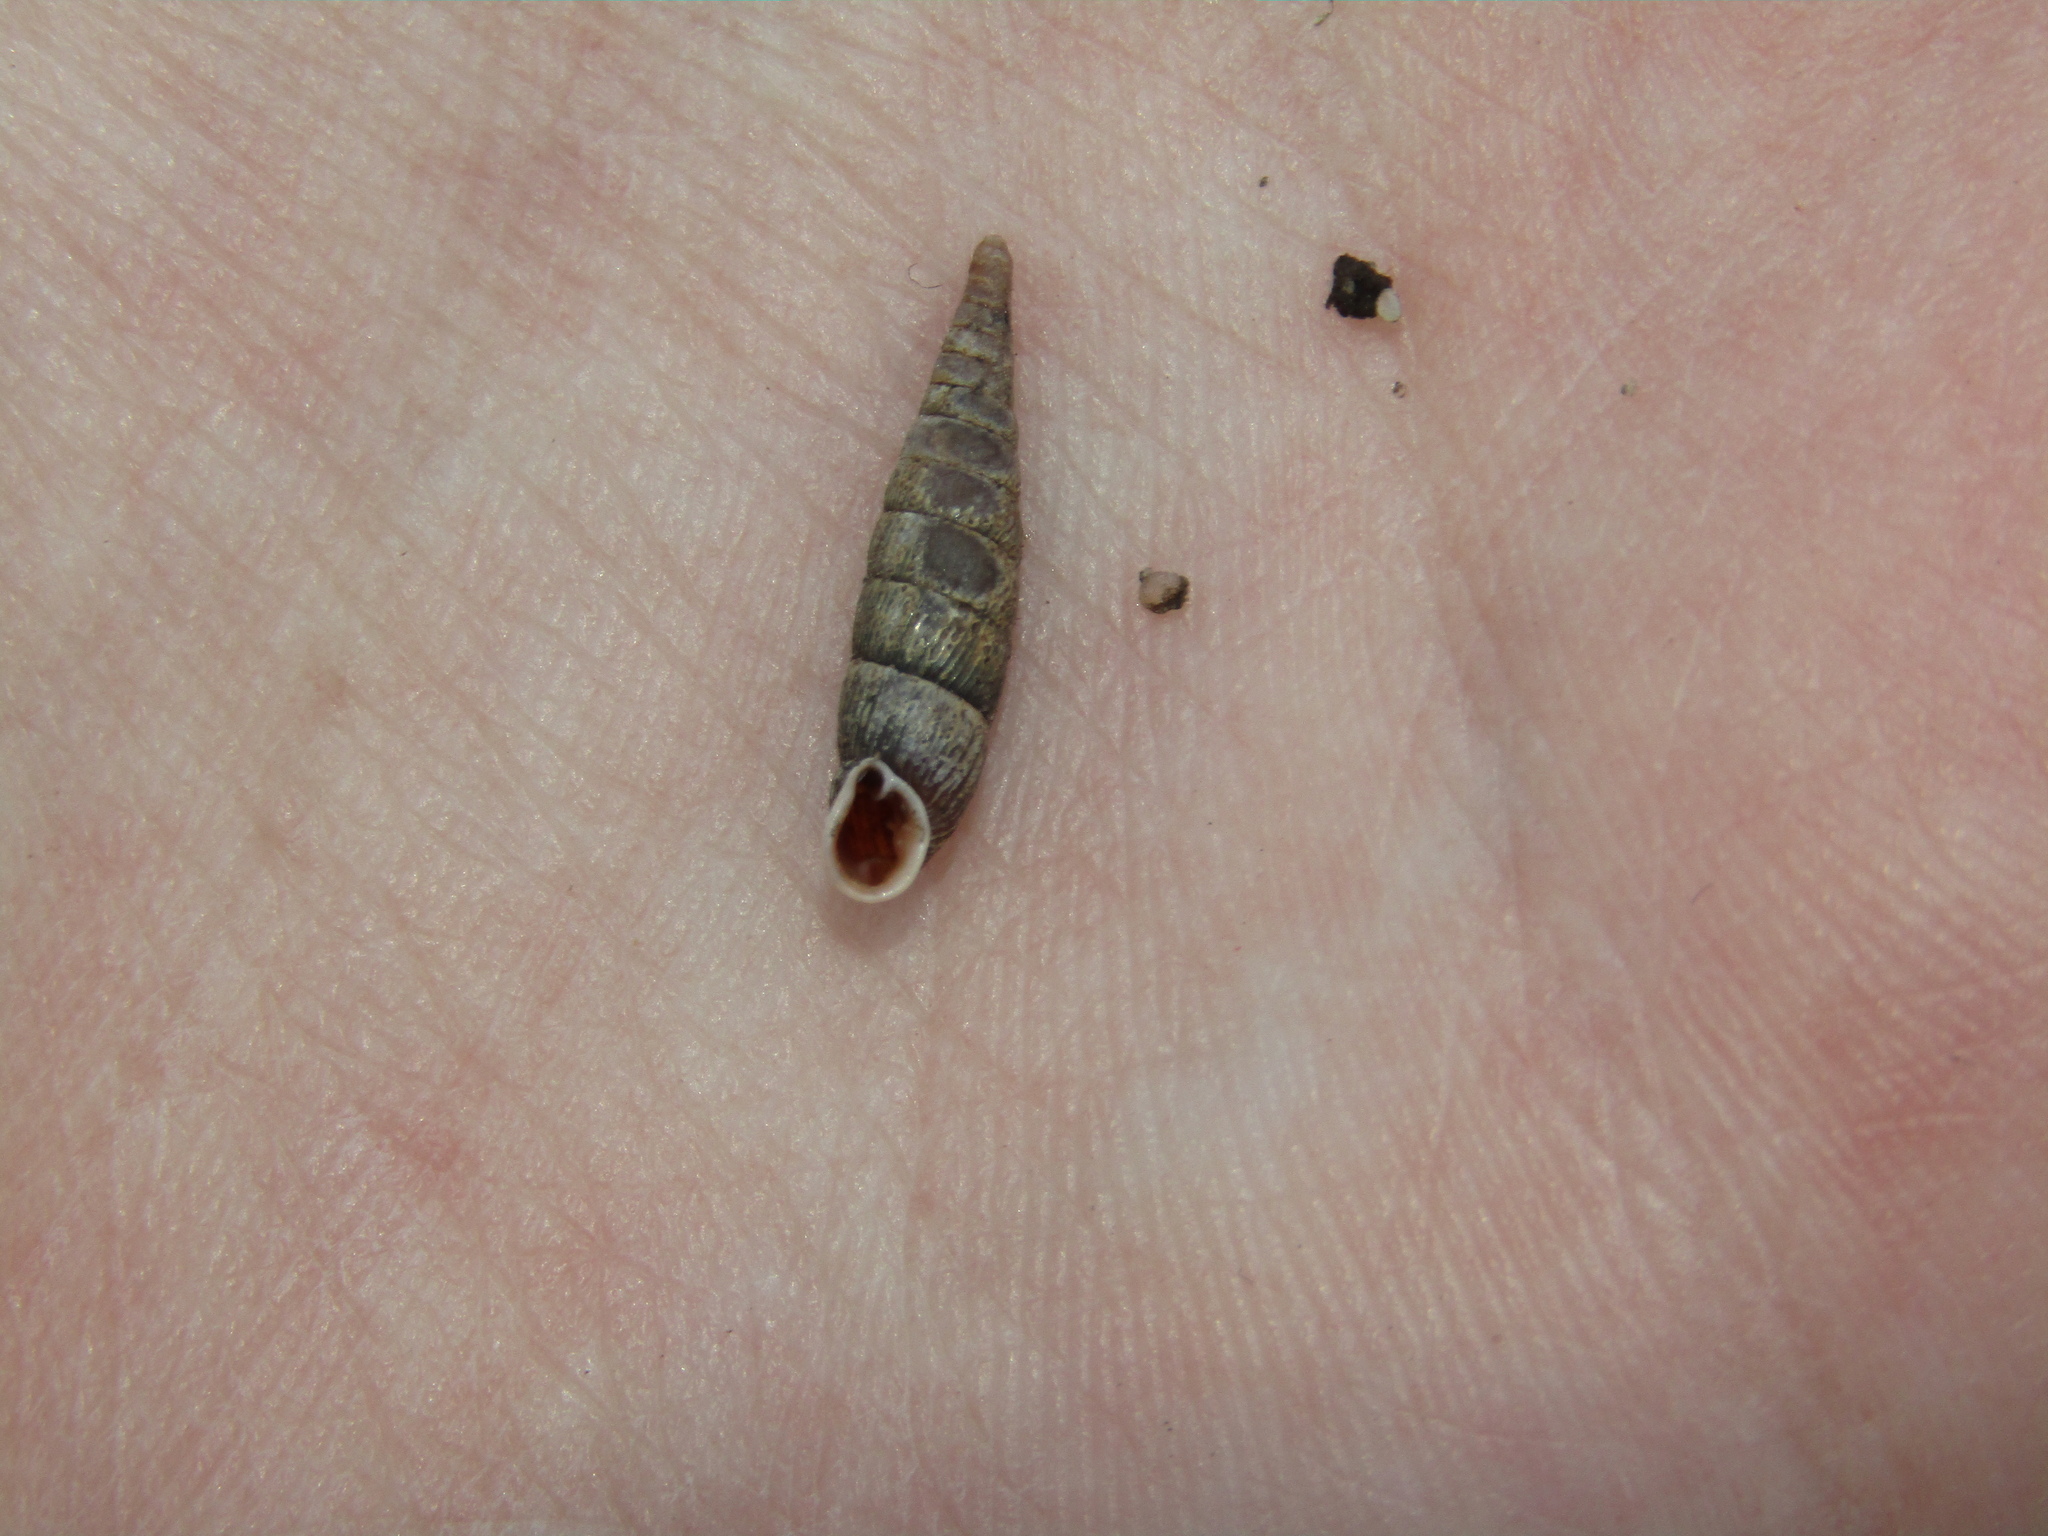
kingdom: Animalia
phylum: Mollusca
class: Gastropoda
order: Stylommatophora
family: Clausiliidae
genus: Clausilia
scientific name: Clausilia pumila
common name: Clublike door snail
